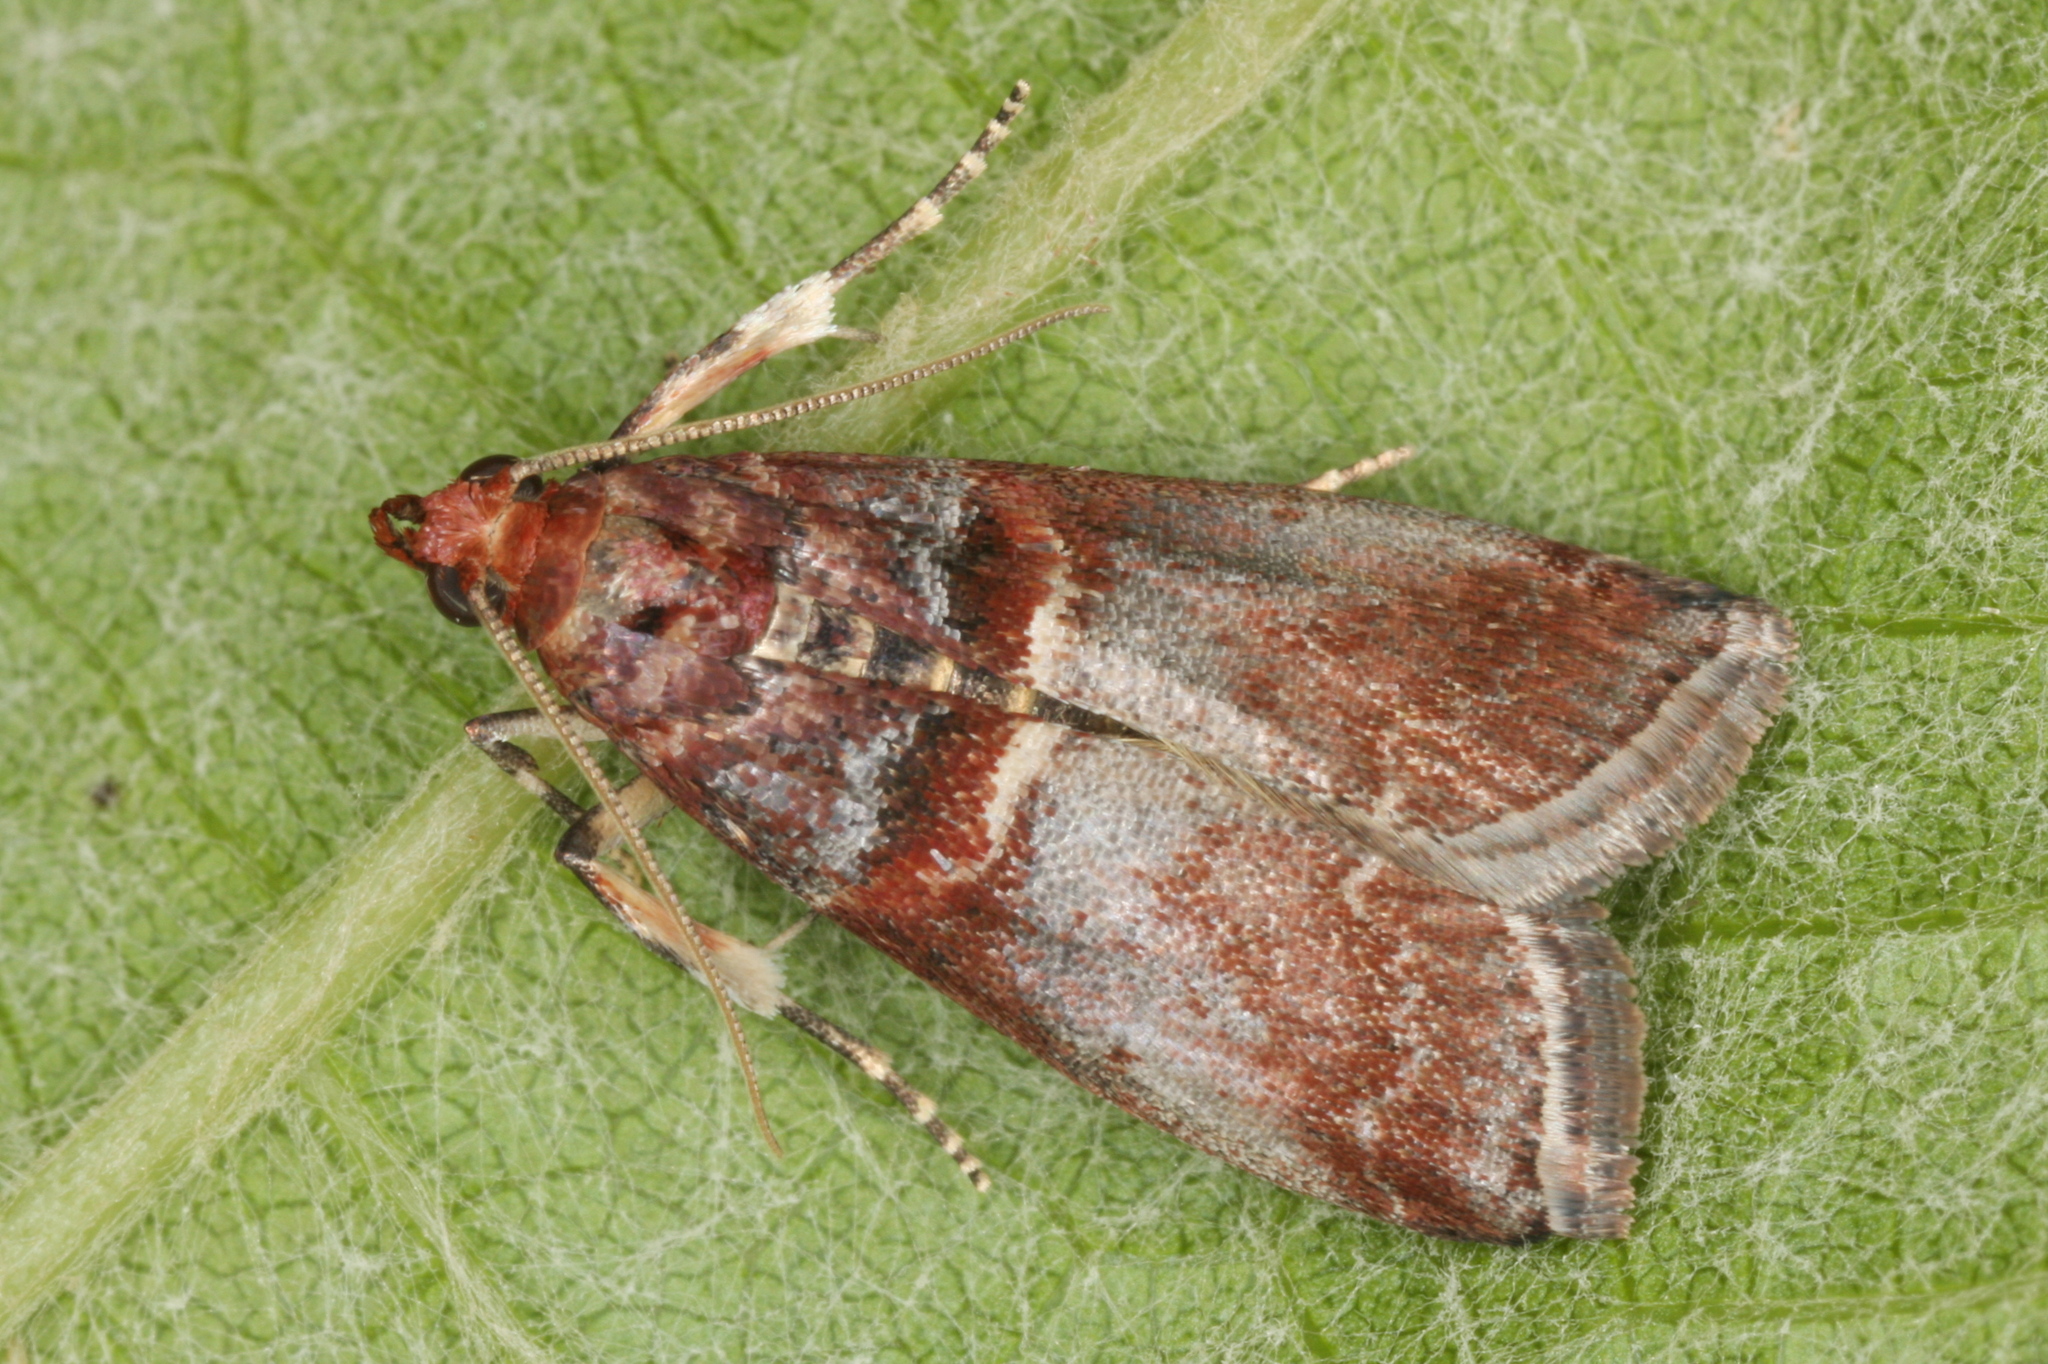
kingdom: Animalia
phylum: Arthropoda
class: Insecta
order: Lepidoptera
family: Pyralidae
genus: Acrobasis
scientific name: Acrobasis advenella
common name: Grey knot-horn
